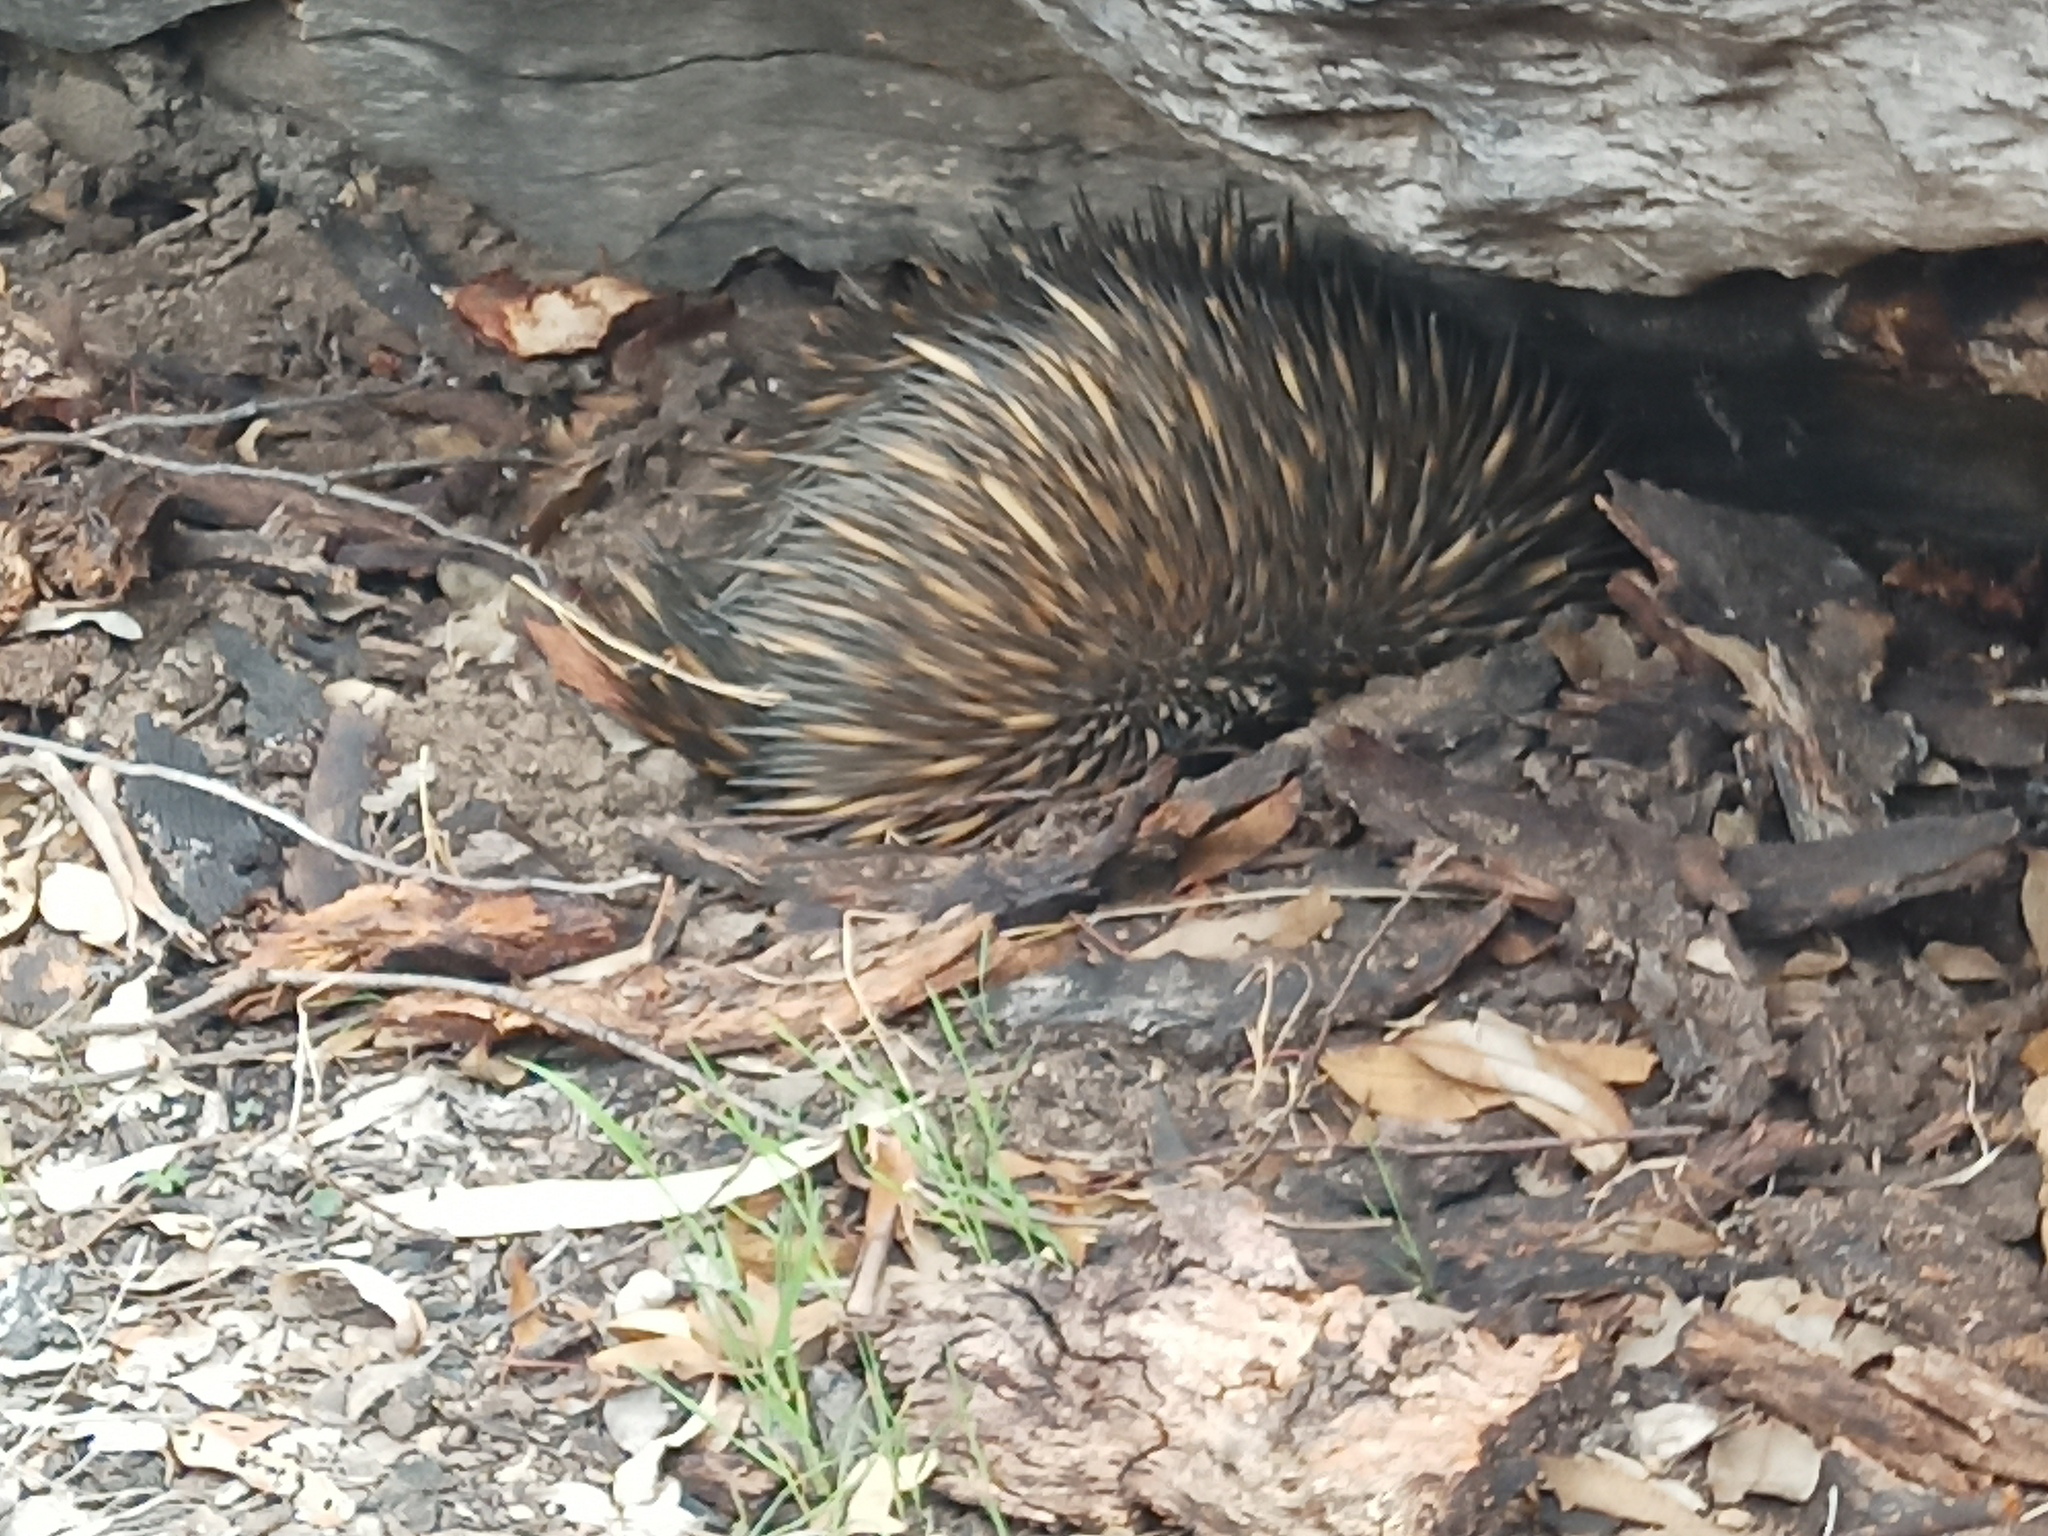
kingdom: Animalia
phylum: Chordata
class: Mammalia
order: Monotremata
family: Tachyglossidae
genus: Tachyglossus
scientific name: Tachyglossus aculeatus
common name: Short-beaked echidna
